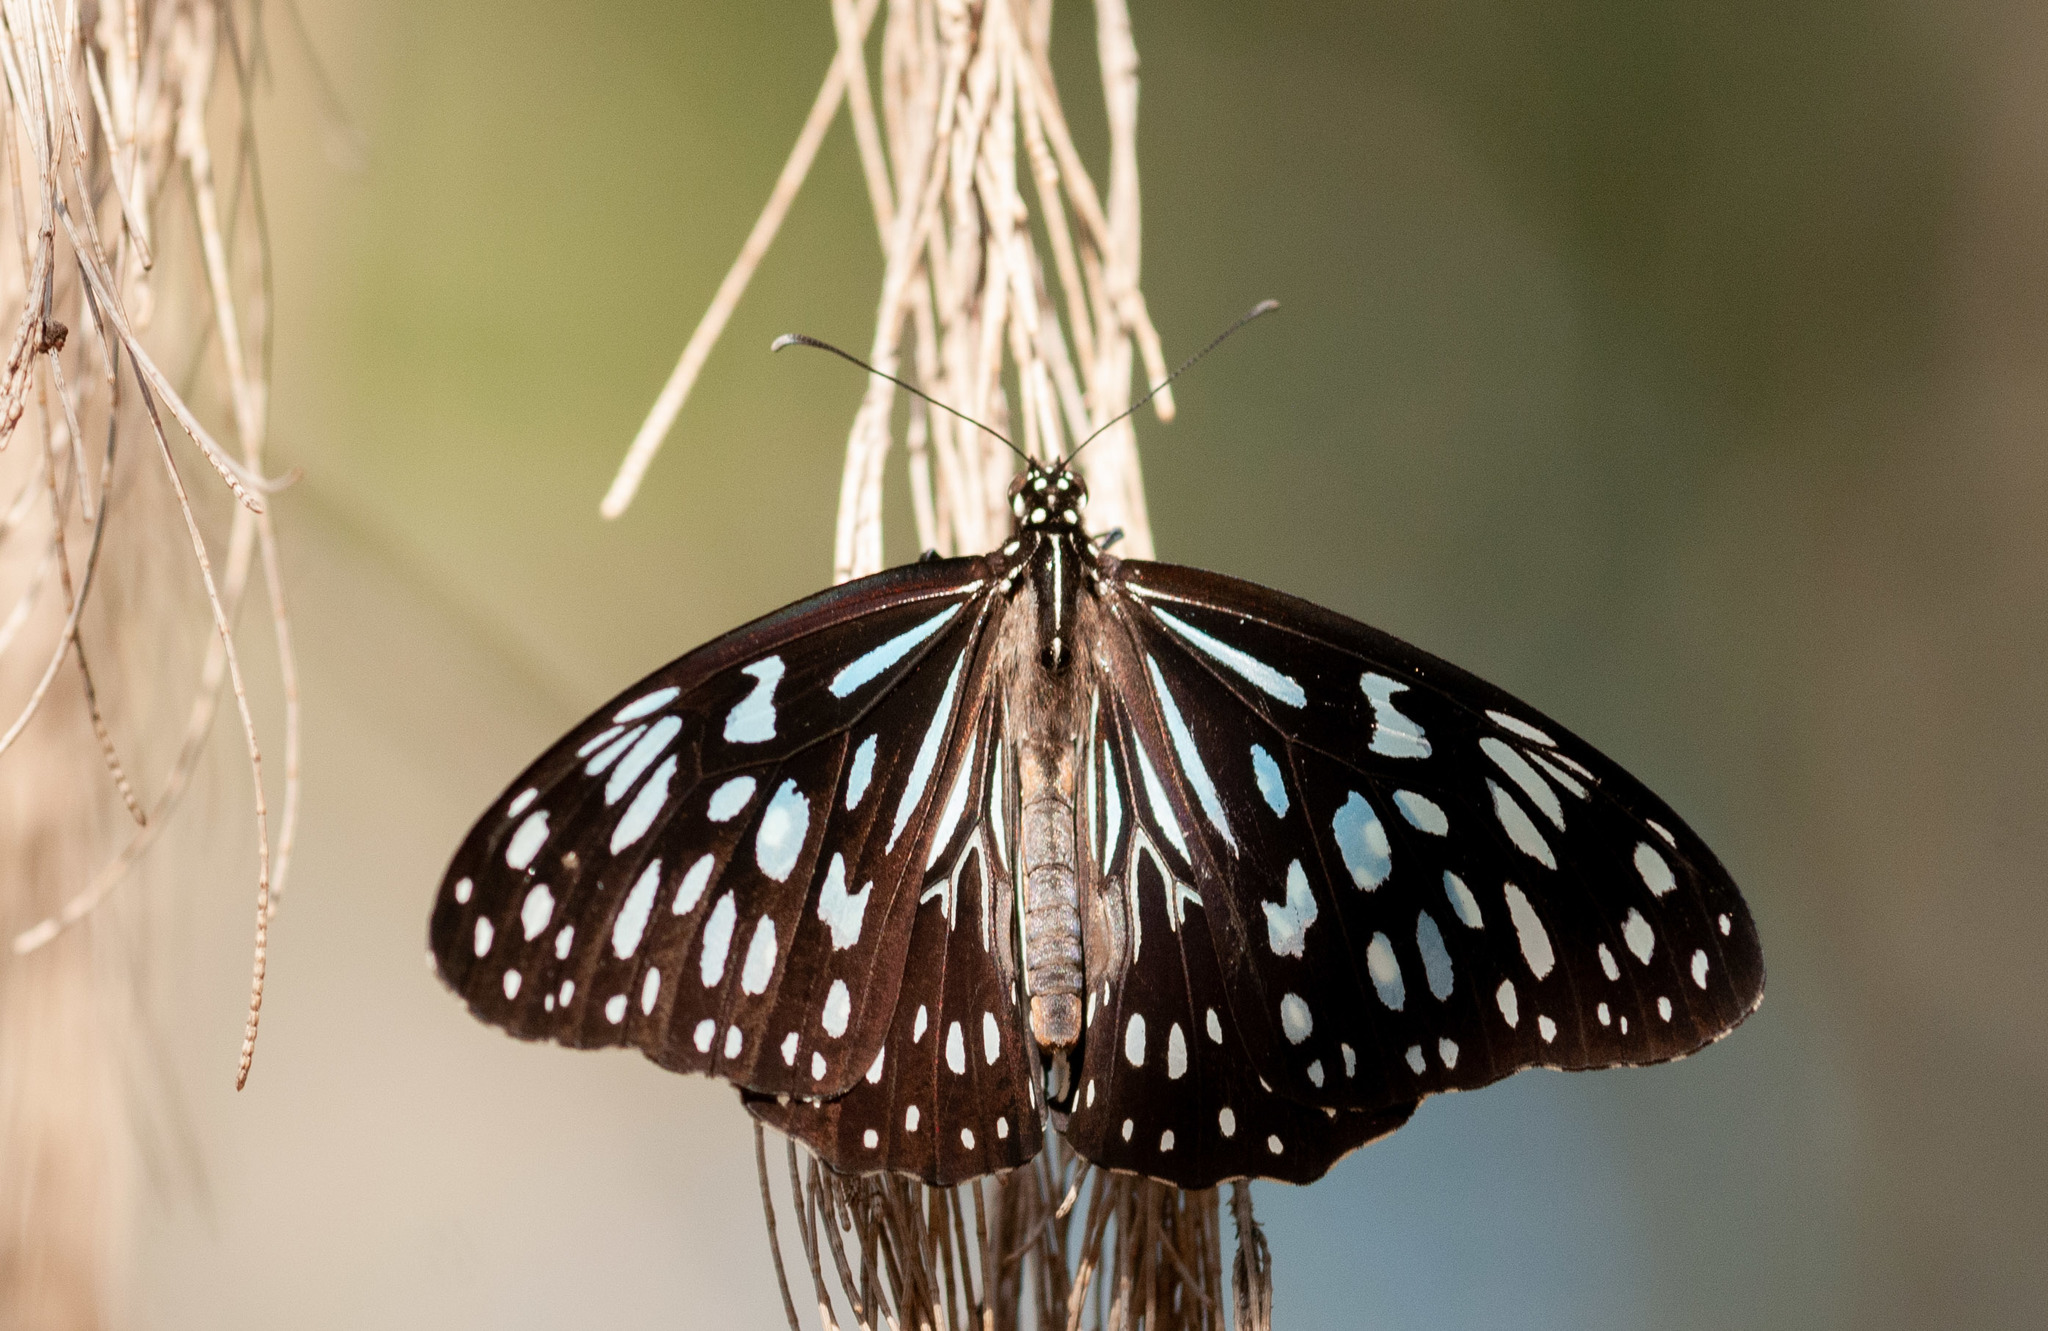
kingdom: Animalia
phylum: Arthropoda
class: Insecta
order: Lepidoptera
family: Nymphalidae
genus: Tirumala
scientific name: Tirumala hamata
